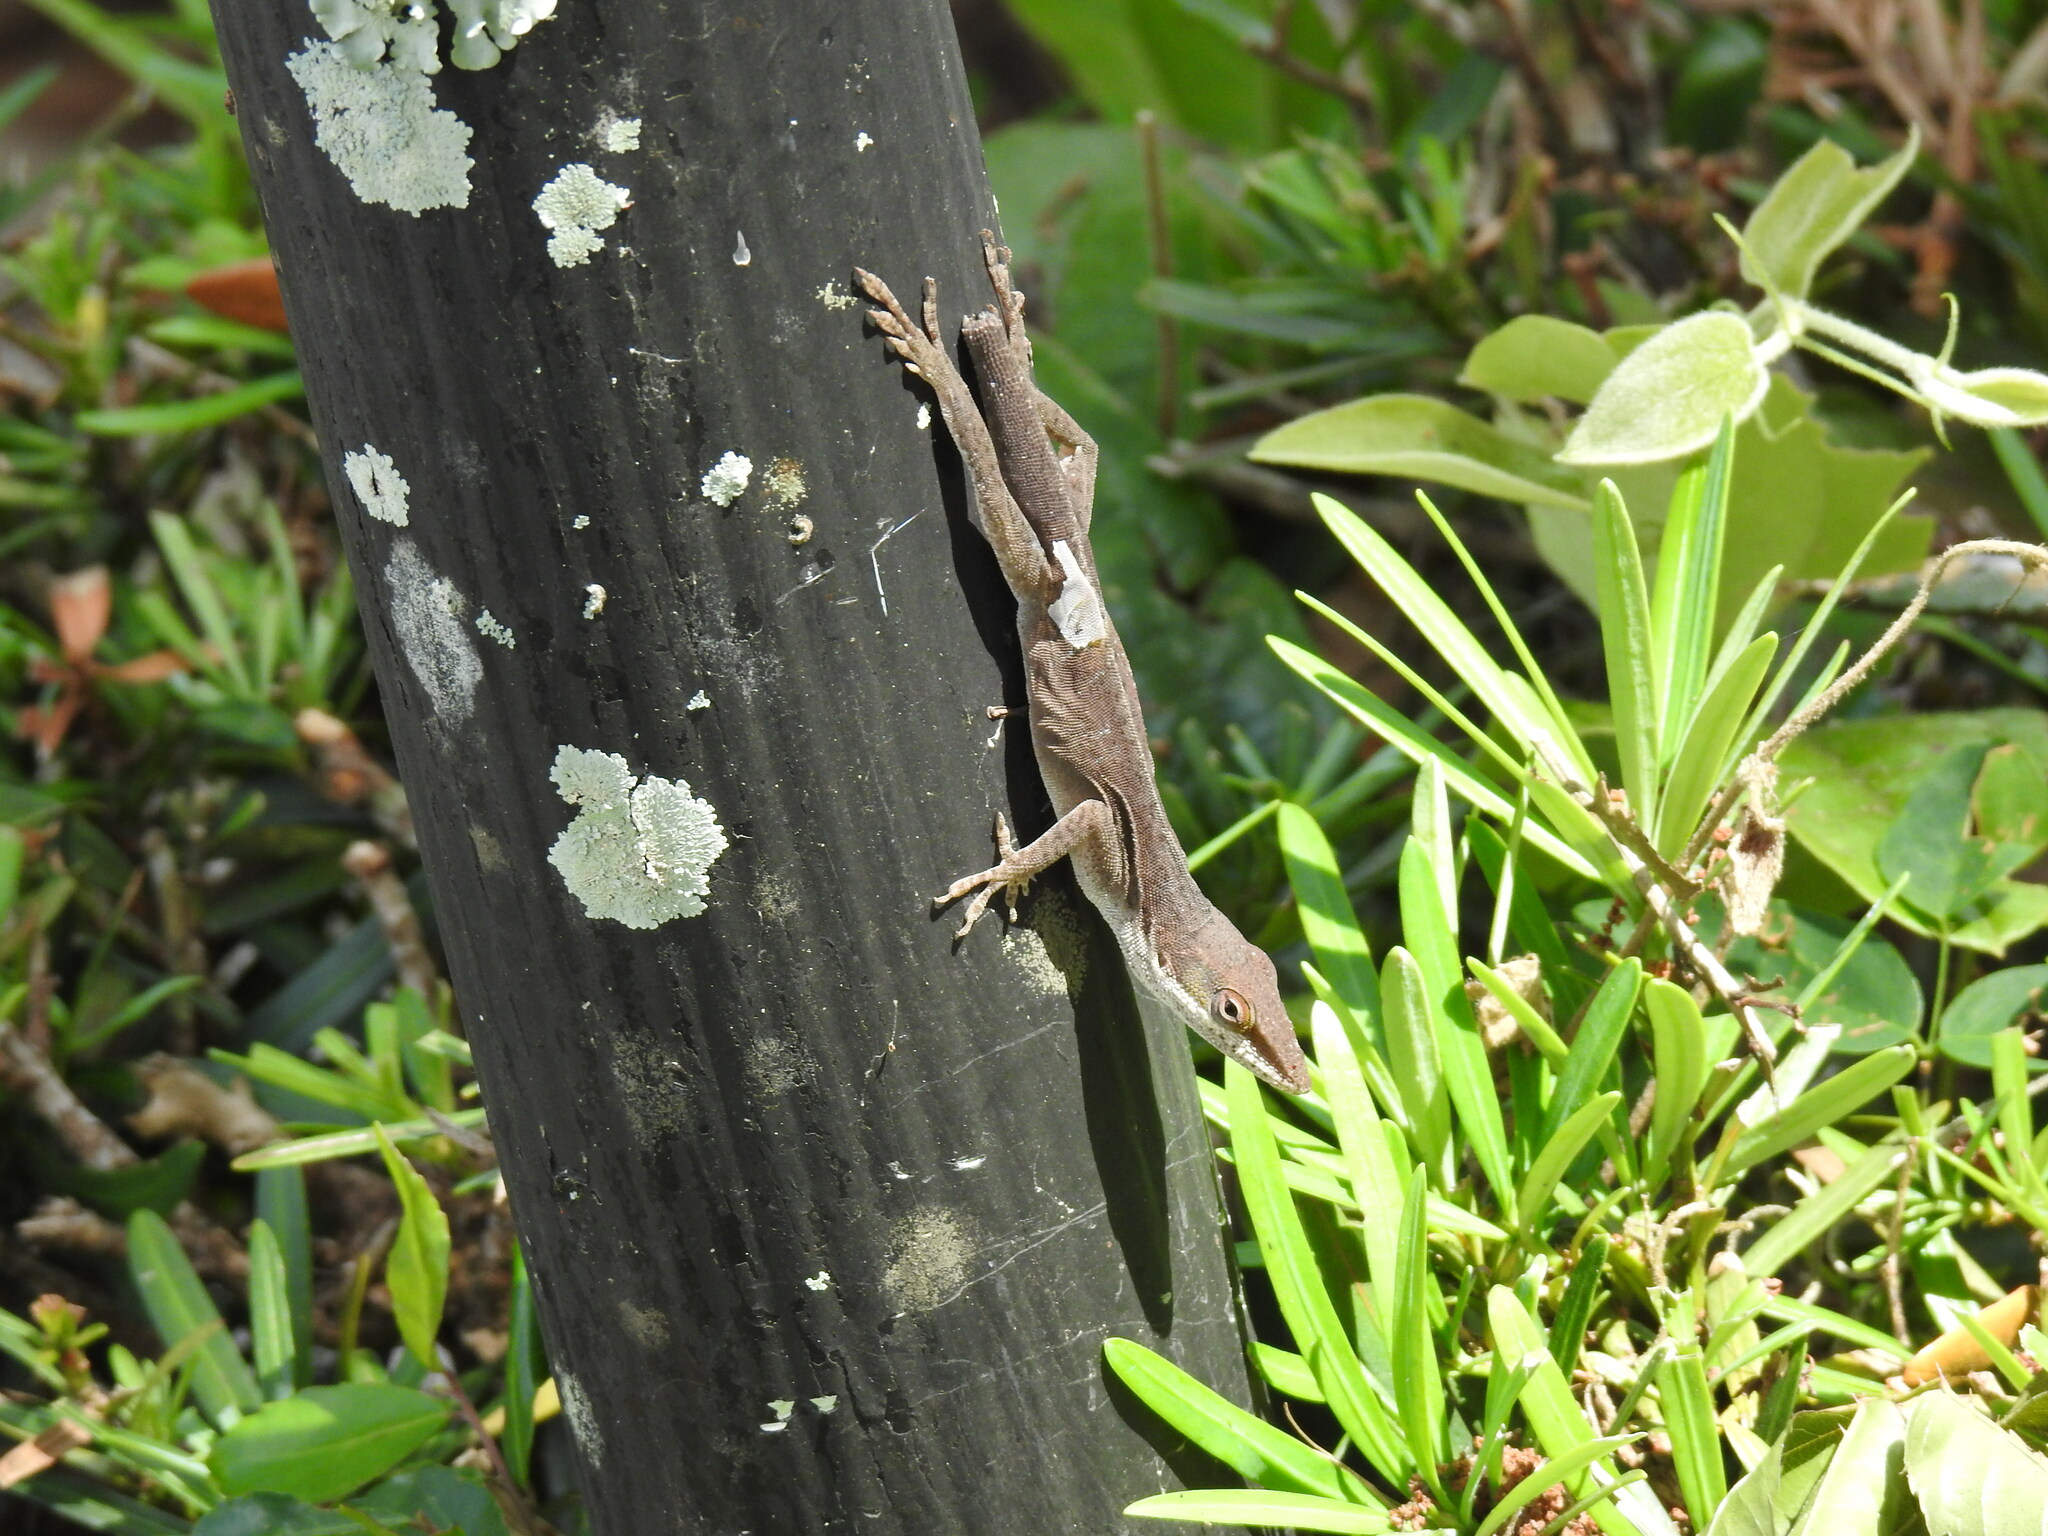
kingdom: Animalia
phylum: Chordata
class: Squamata
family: Dactyloidae
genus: Anolis
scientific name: Anolis carolinensis
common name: Green anole
